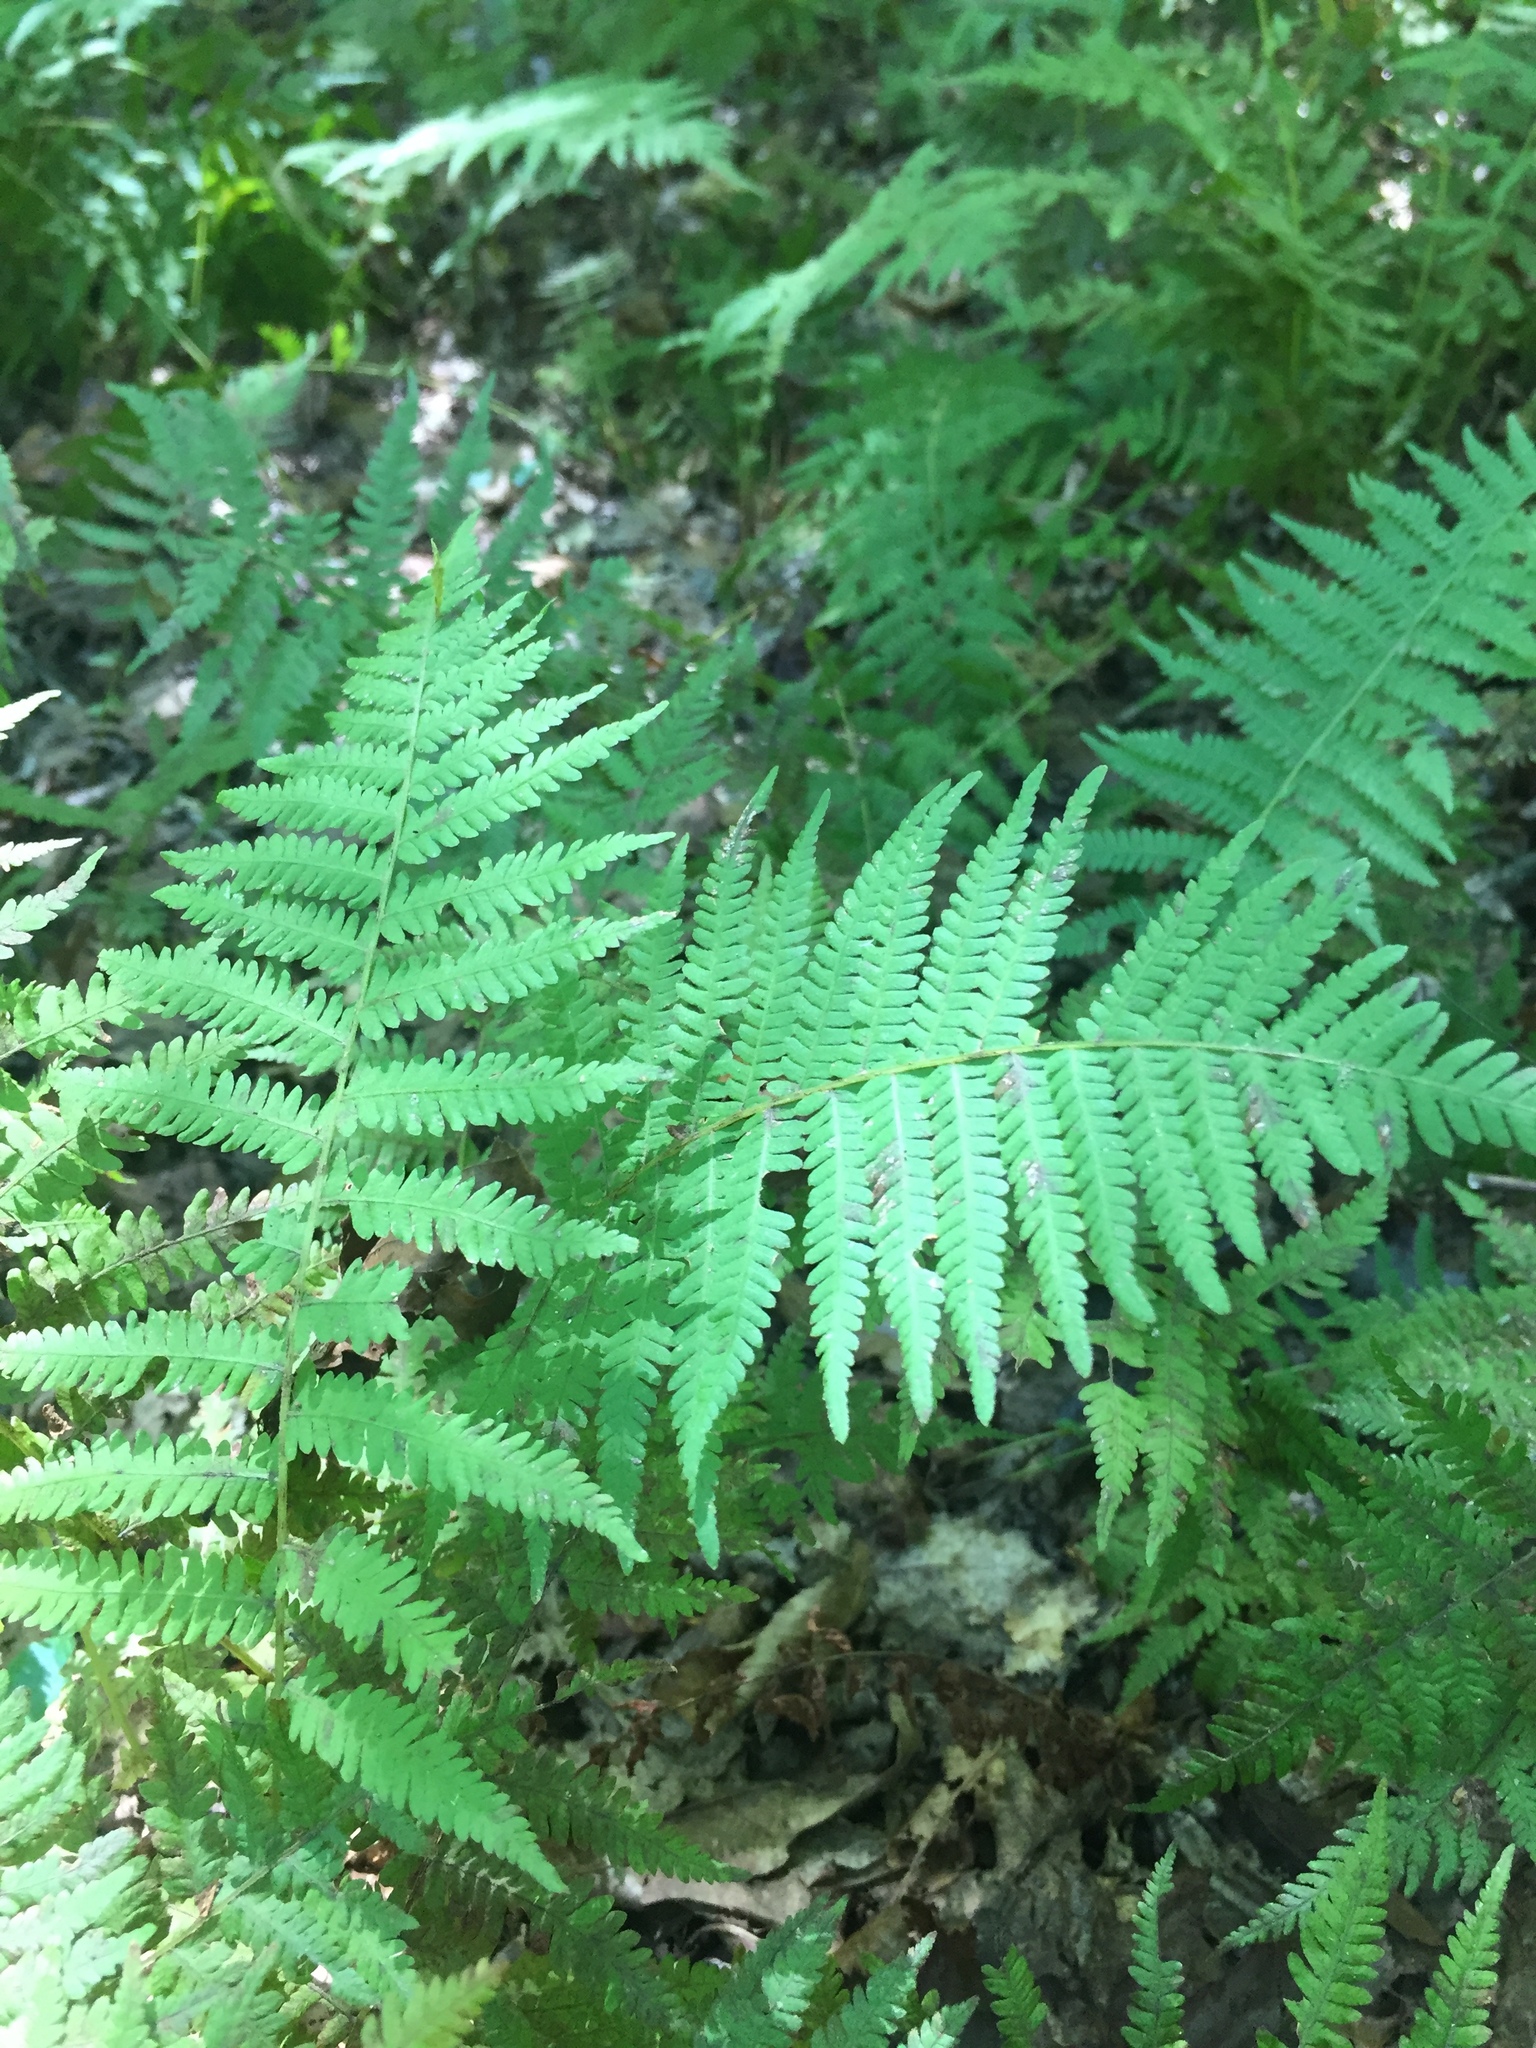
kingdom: Plantae
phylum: Tracheophyta
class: Polypodiopsida
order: Polypodiales
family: Thelypteridaceae
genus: Amauropelta
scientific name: Amauropelta noveboracensis
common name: New york fern
